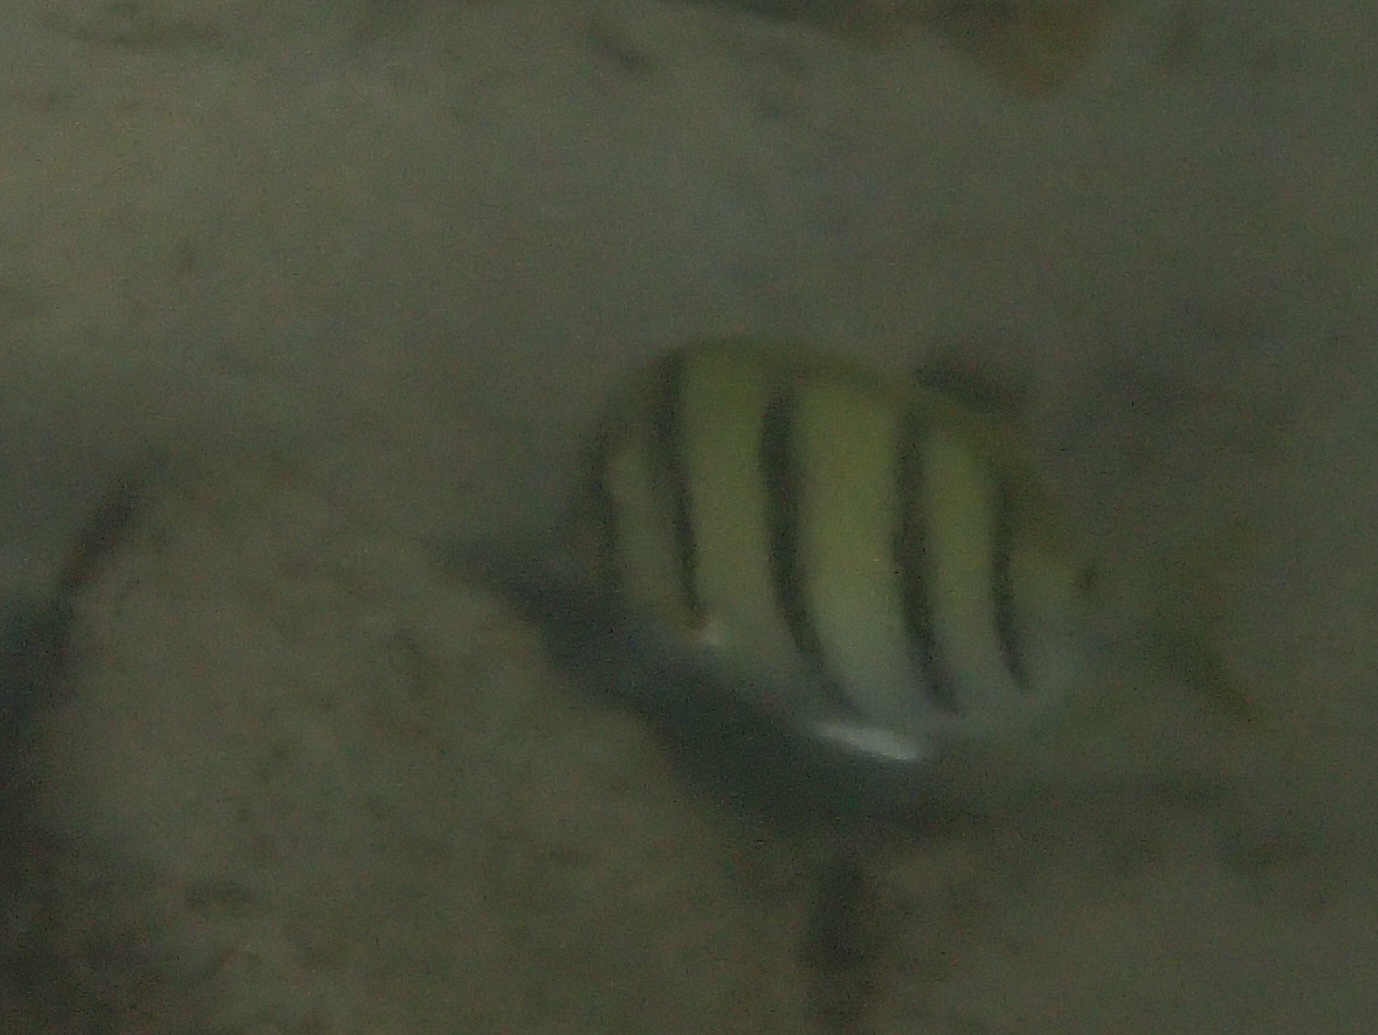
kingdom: Animalia
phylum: Chordata
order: Perciformes
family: Acanthuridae
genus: Acanthurus
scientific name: Acanthurus triostegus
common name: Convict surgeonfish
